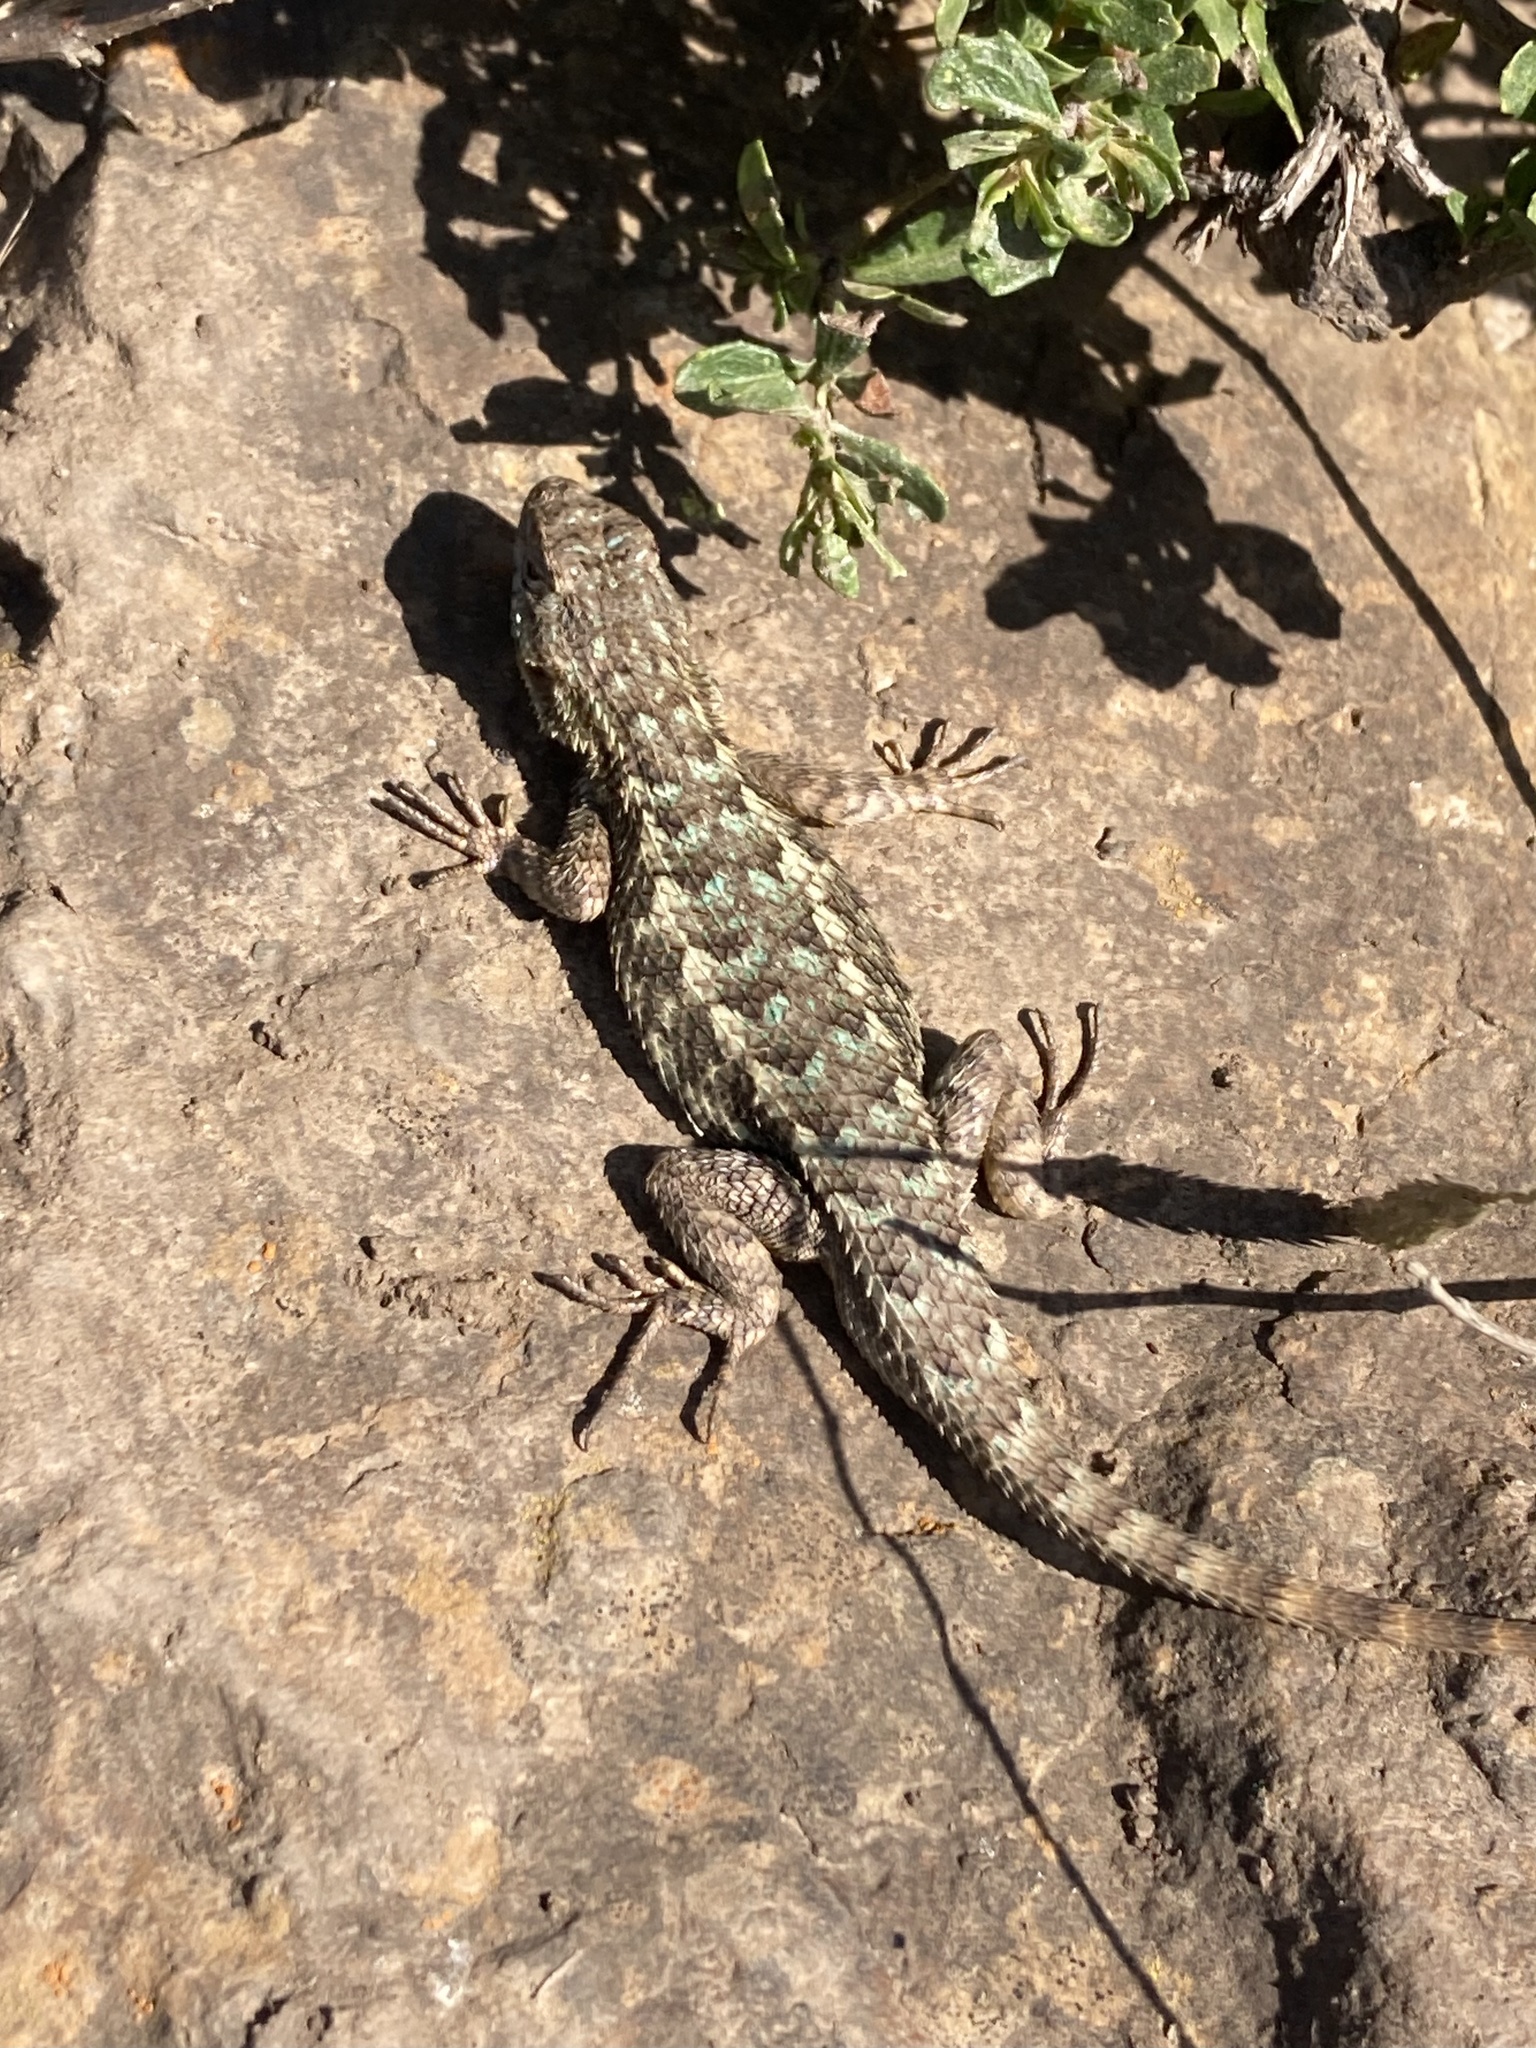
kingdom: Animalia
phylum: Chordata
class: Squamata
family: Phrynosomatidae
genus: Sceloporus
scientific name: Sceloporus occidentalis
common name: Western fence lizard
